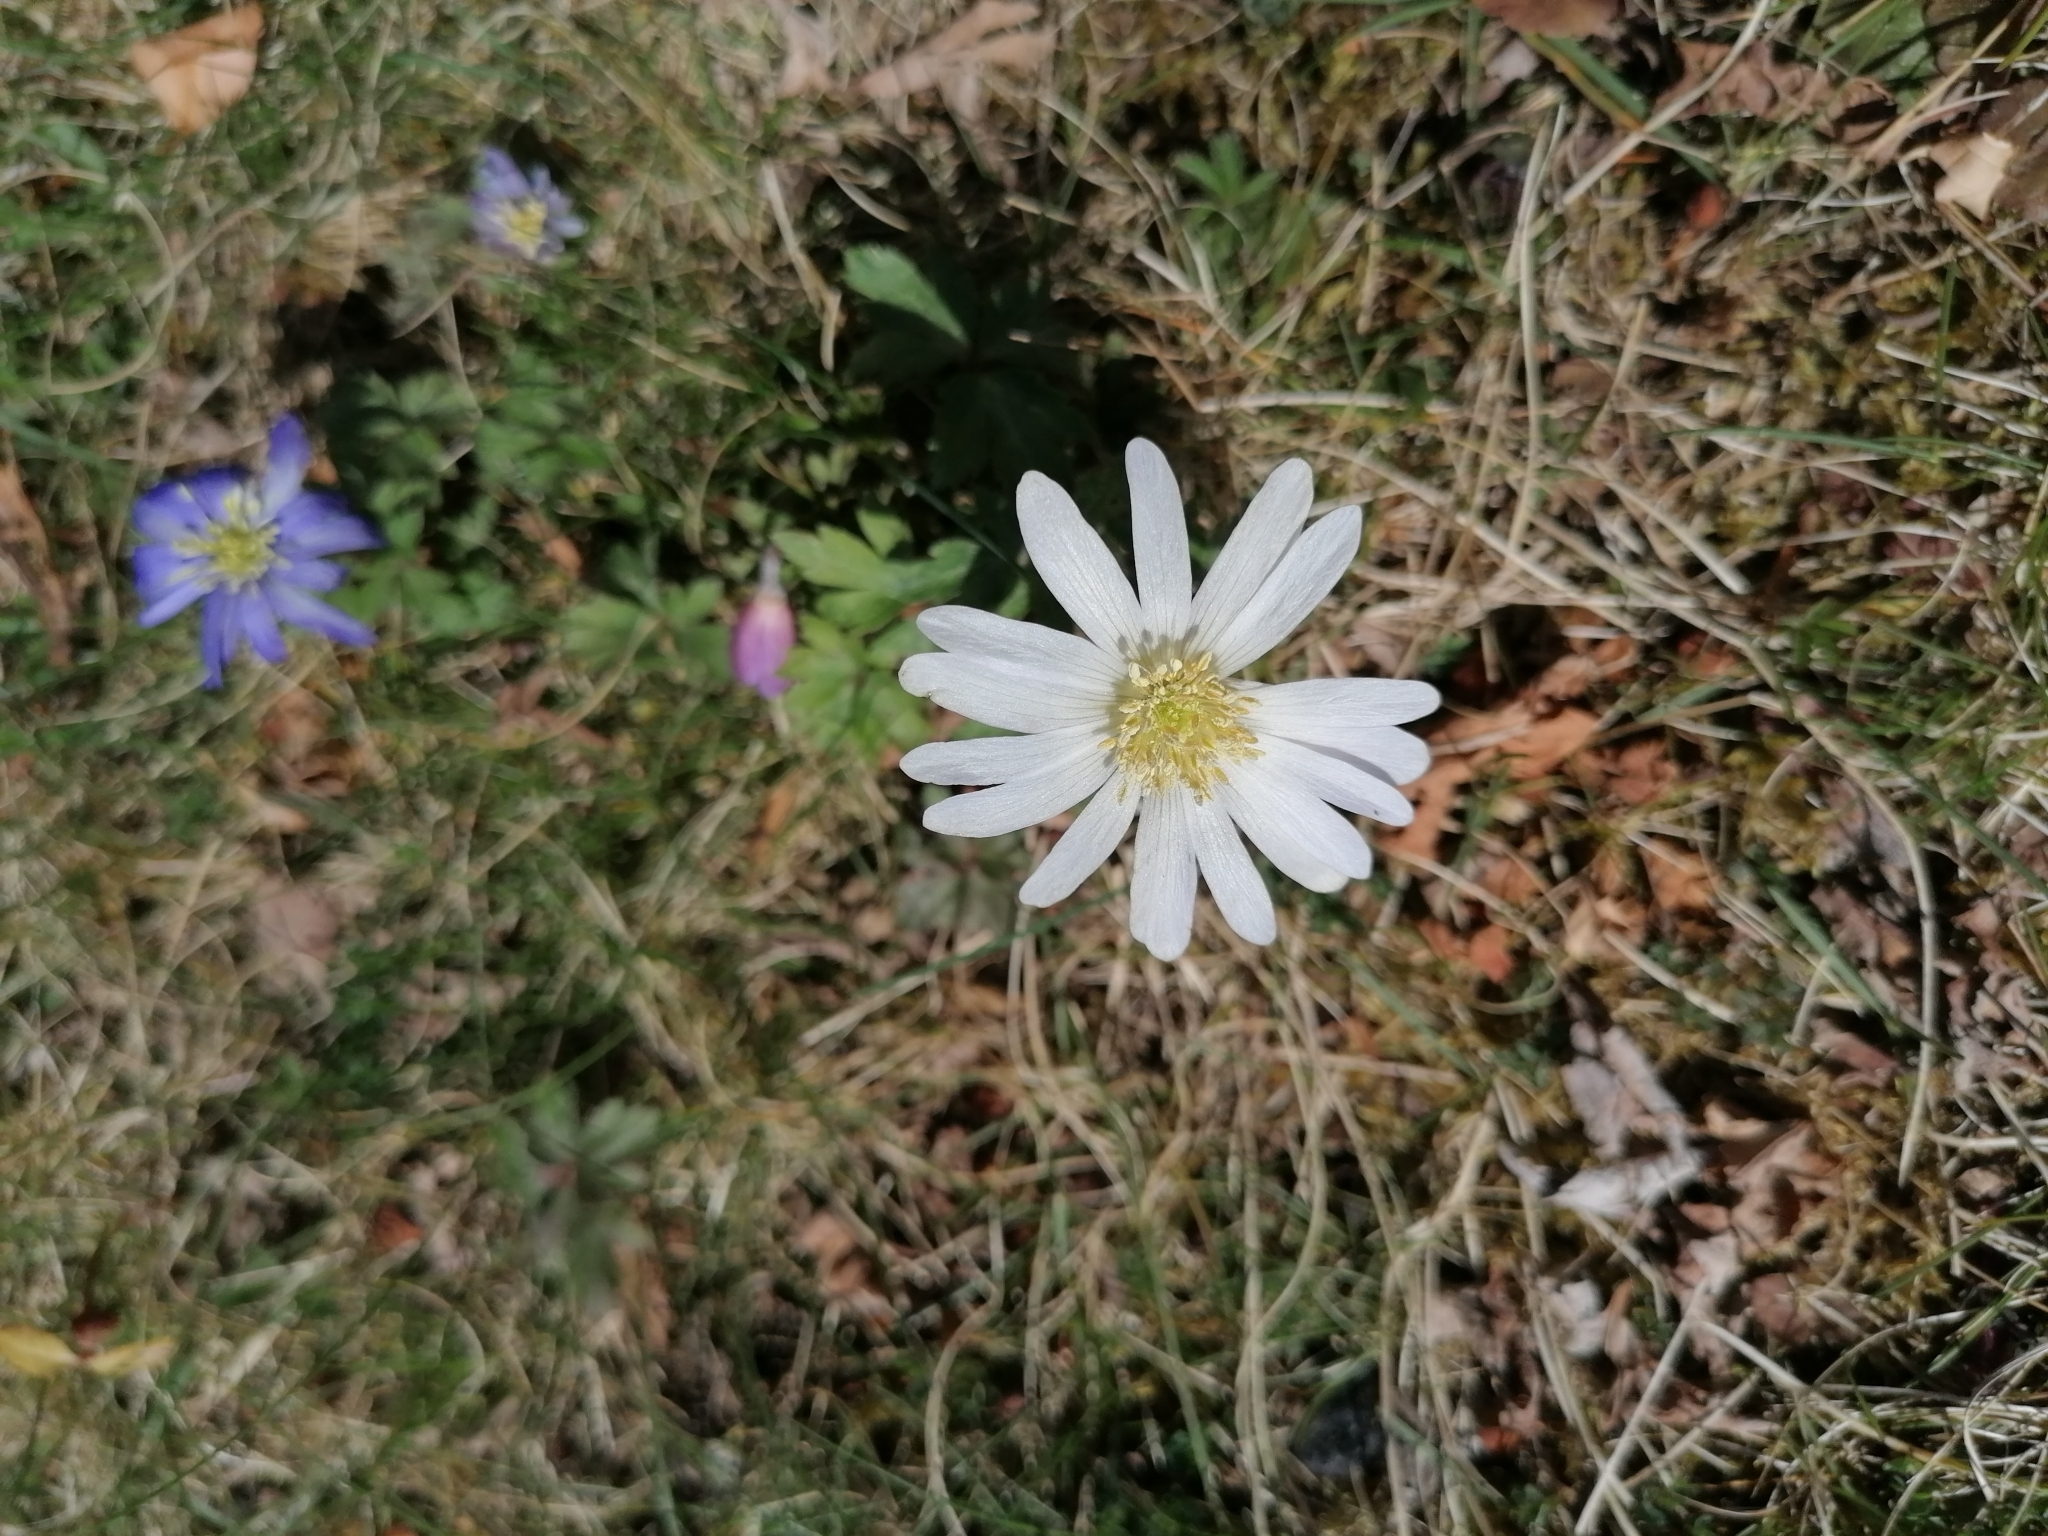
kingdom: Plantae
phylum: Tracheophyta
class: Magnoliopsida
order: Ranunculales
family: Ranunculaceae
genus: Anemone
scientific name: Anemone blanda
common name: Balkan anemone
